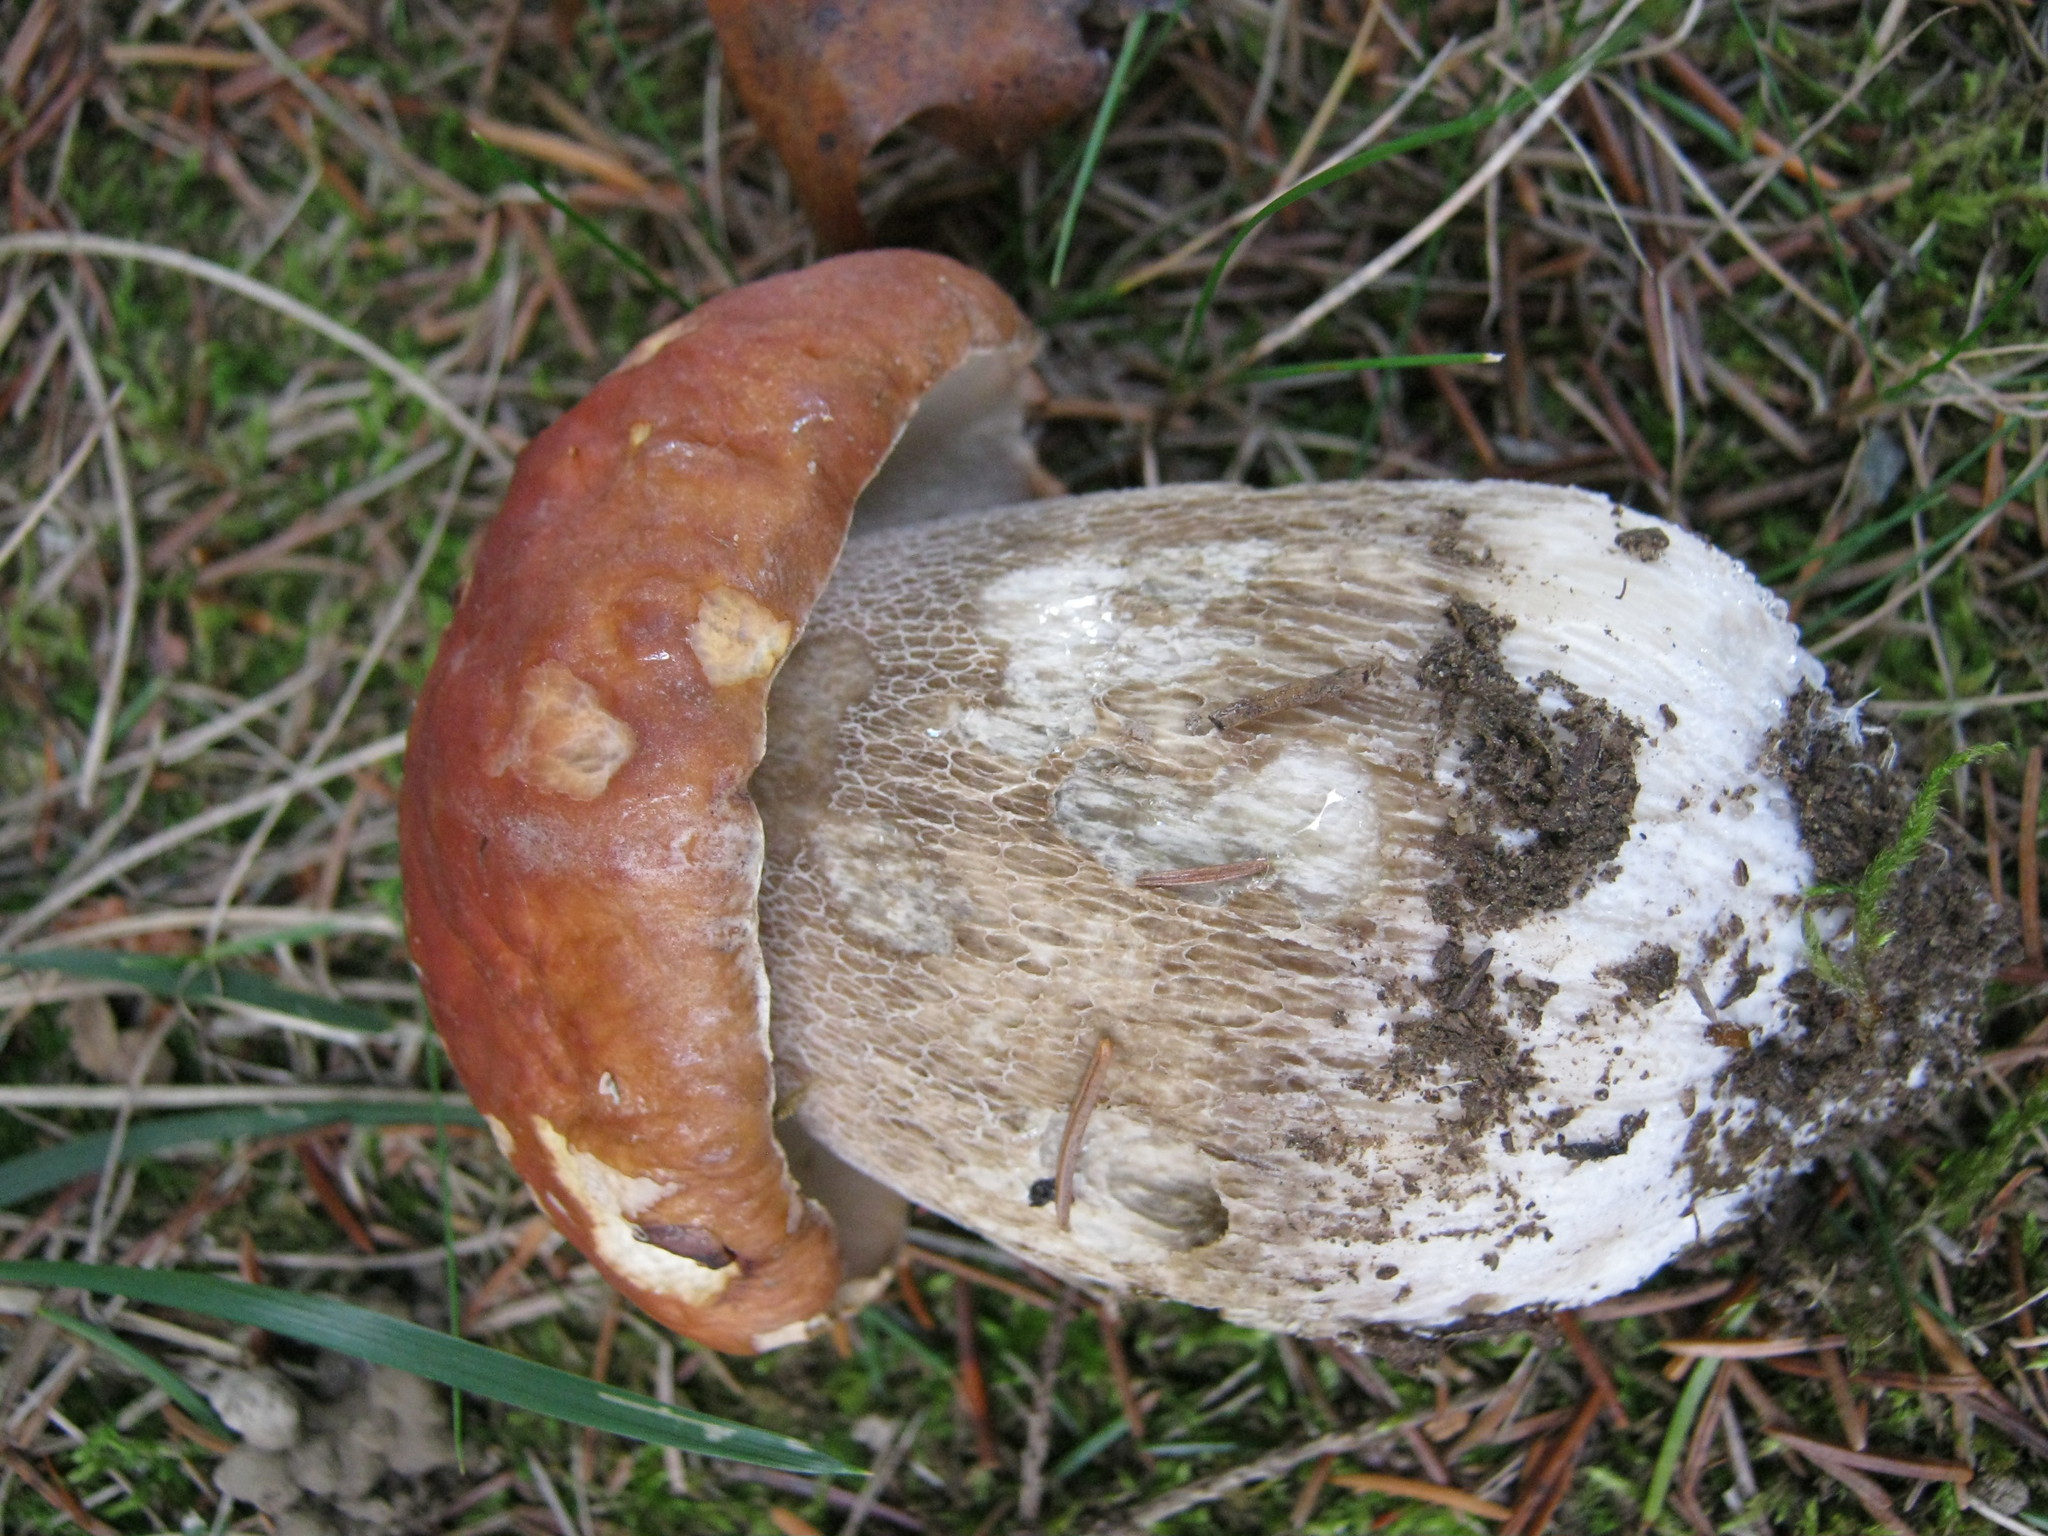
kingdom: Fungi
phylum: Basidiomycota
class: Agaricomycetes
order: Boletales
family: Boletaceae
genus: Boletus
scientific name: Boletus edulis
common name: Cep
